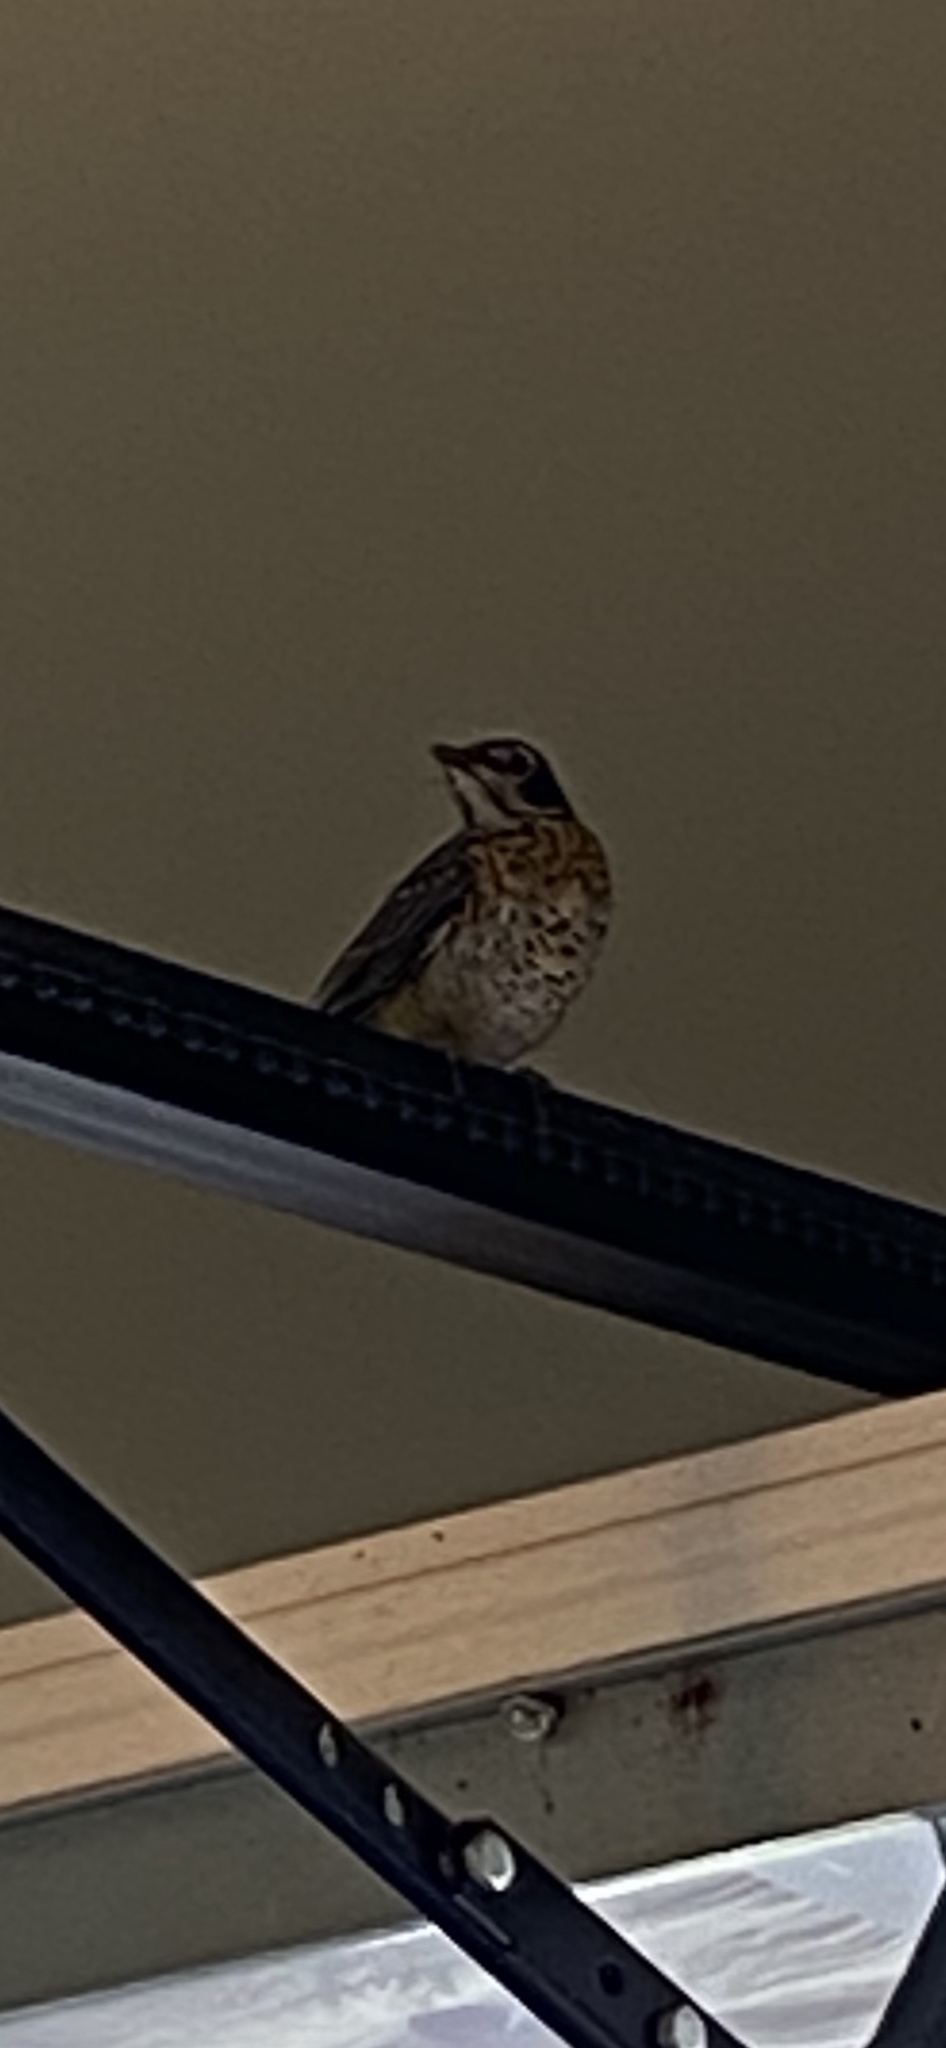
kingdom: Animalia
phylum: Chordata
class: Aves
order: Passeriformes
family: Turdidae
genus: Turdus
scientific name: Turdus migratorius
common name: American robin
